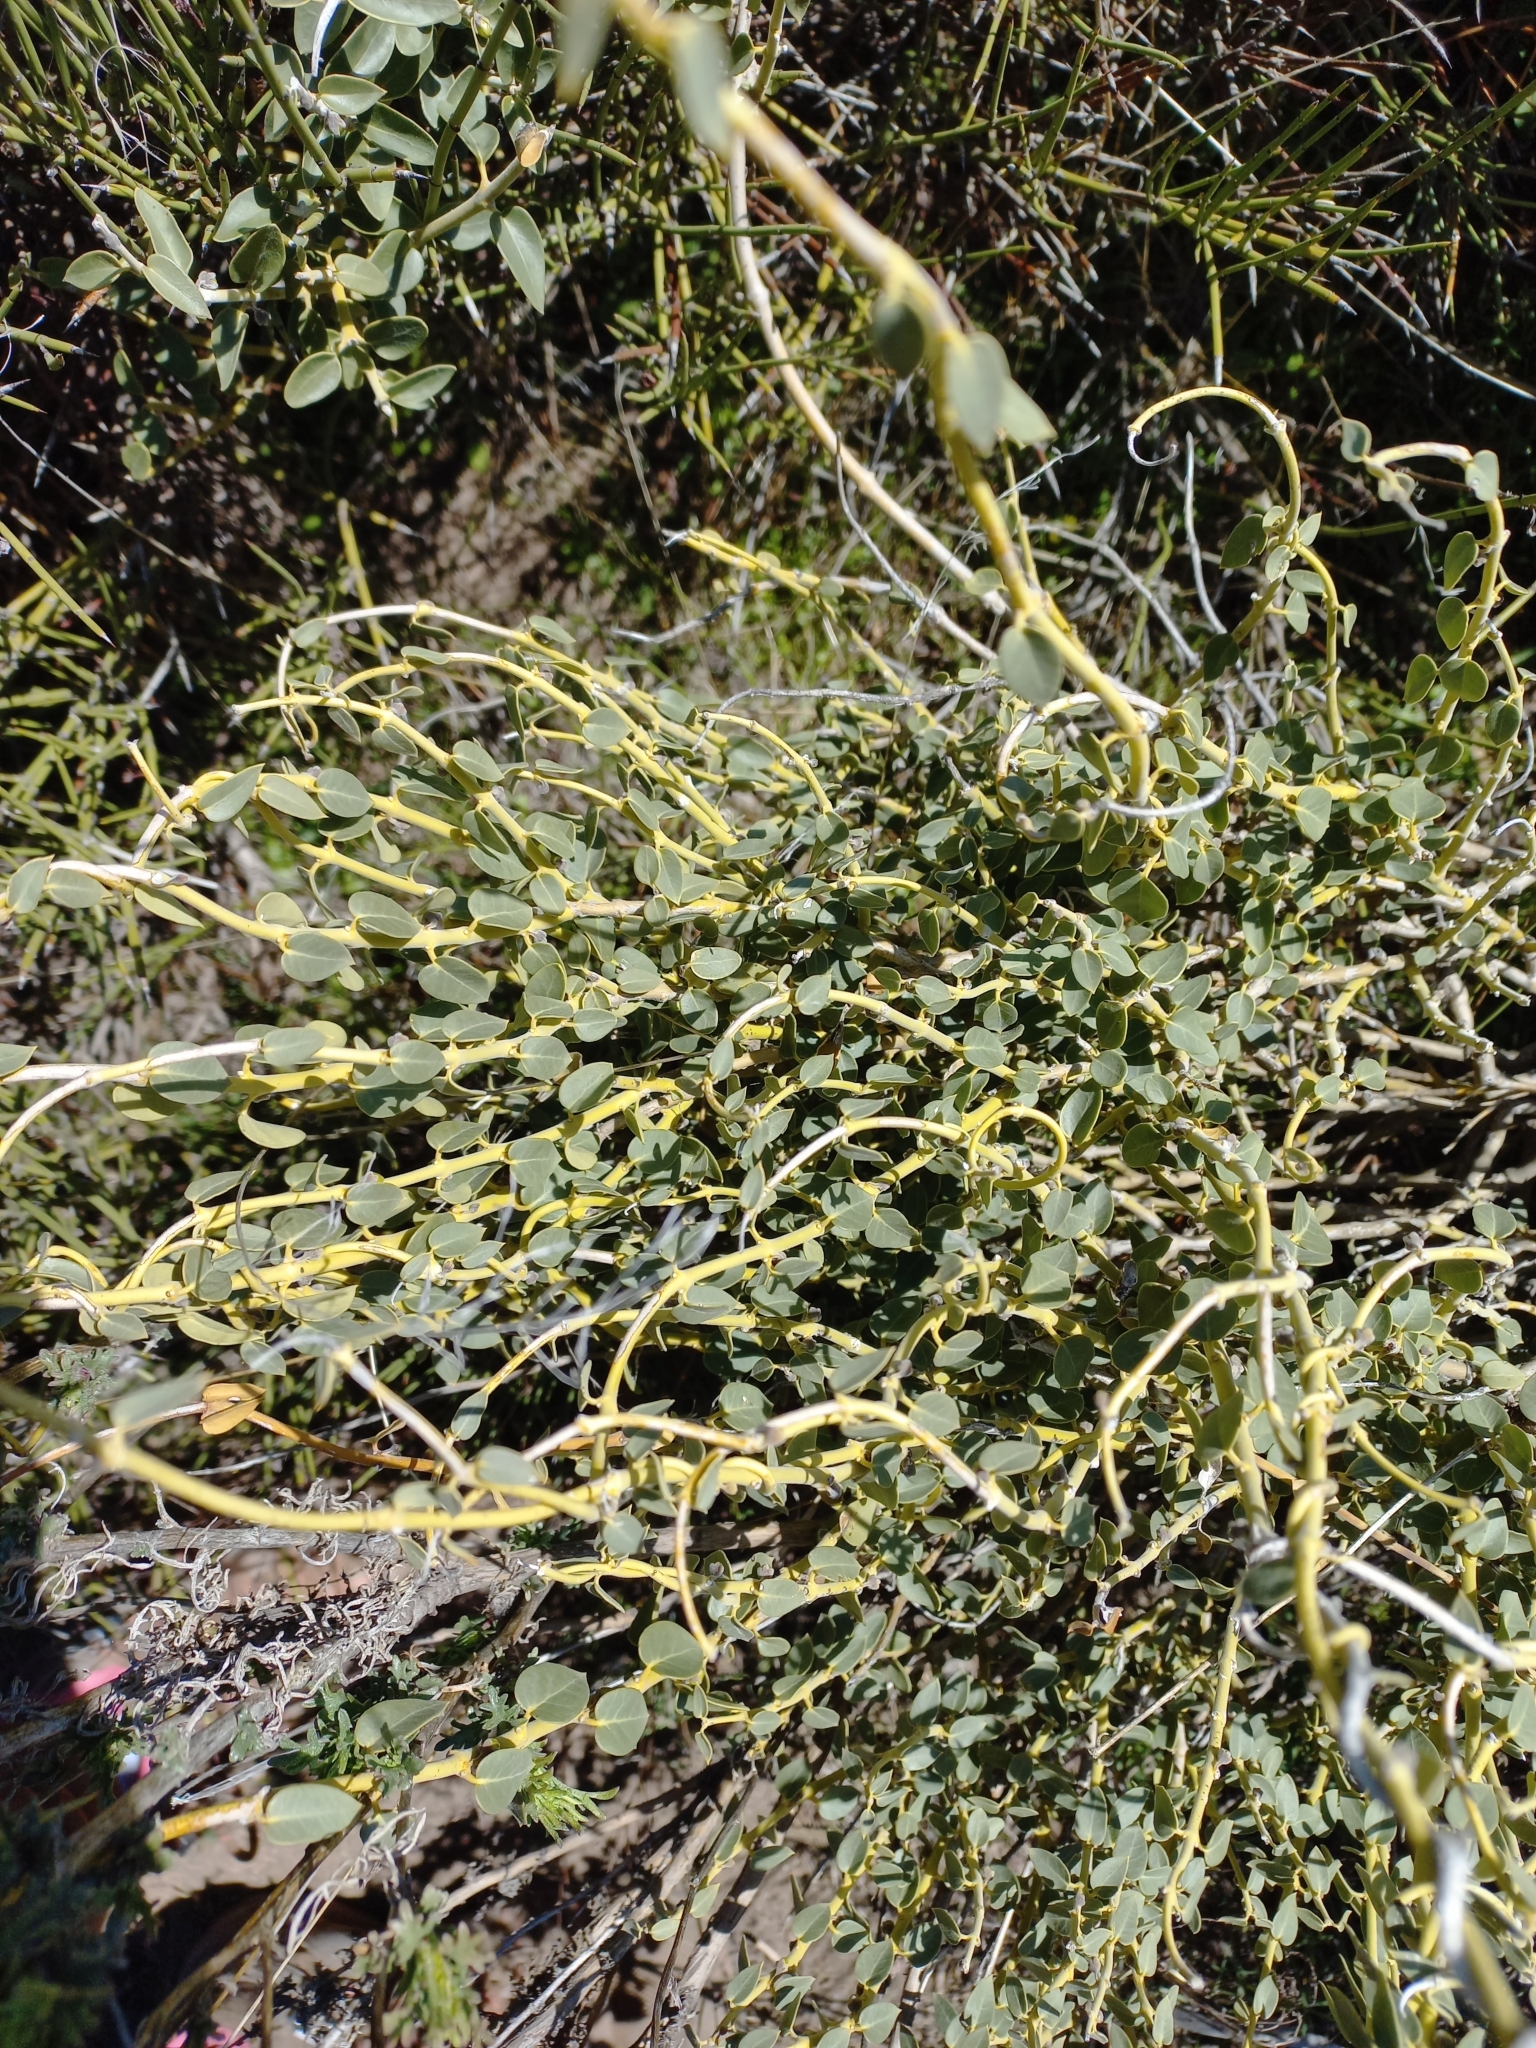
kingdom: Plantae
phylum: Tracheophyta
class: Magnoliopsida
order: Gentianales
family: Apocynaceae
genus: Diplolepis
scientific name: Diplolepis hieronymi
